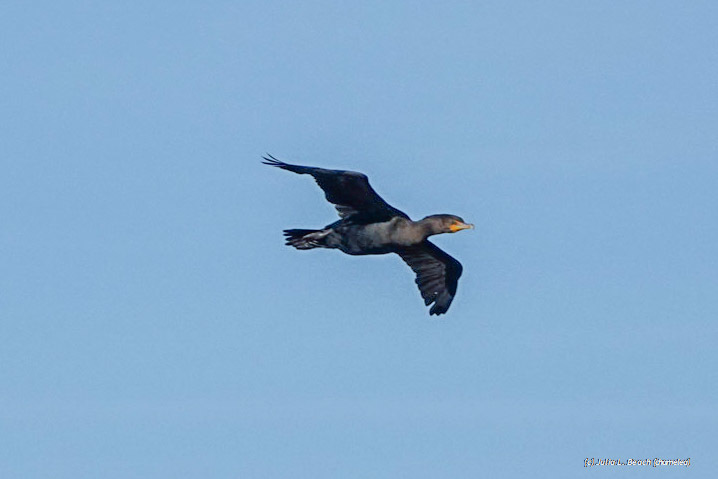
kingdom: Animalia
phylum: Chordata
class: Aves
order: Suliformes
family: Phalacrocoracidae
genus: Phalacrocorax
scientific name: Phalacrocorax auritus
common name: Double-crested cormorant
